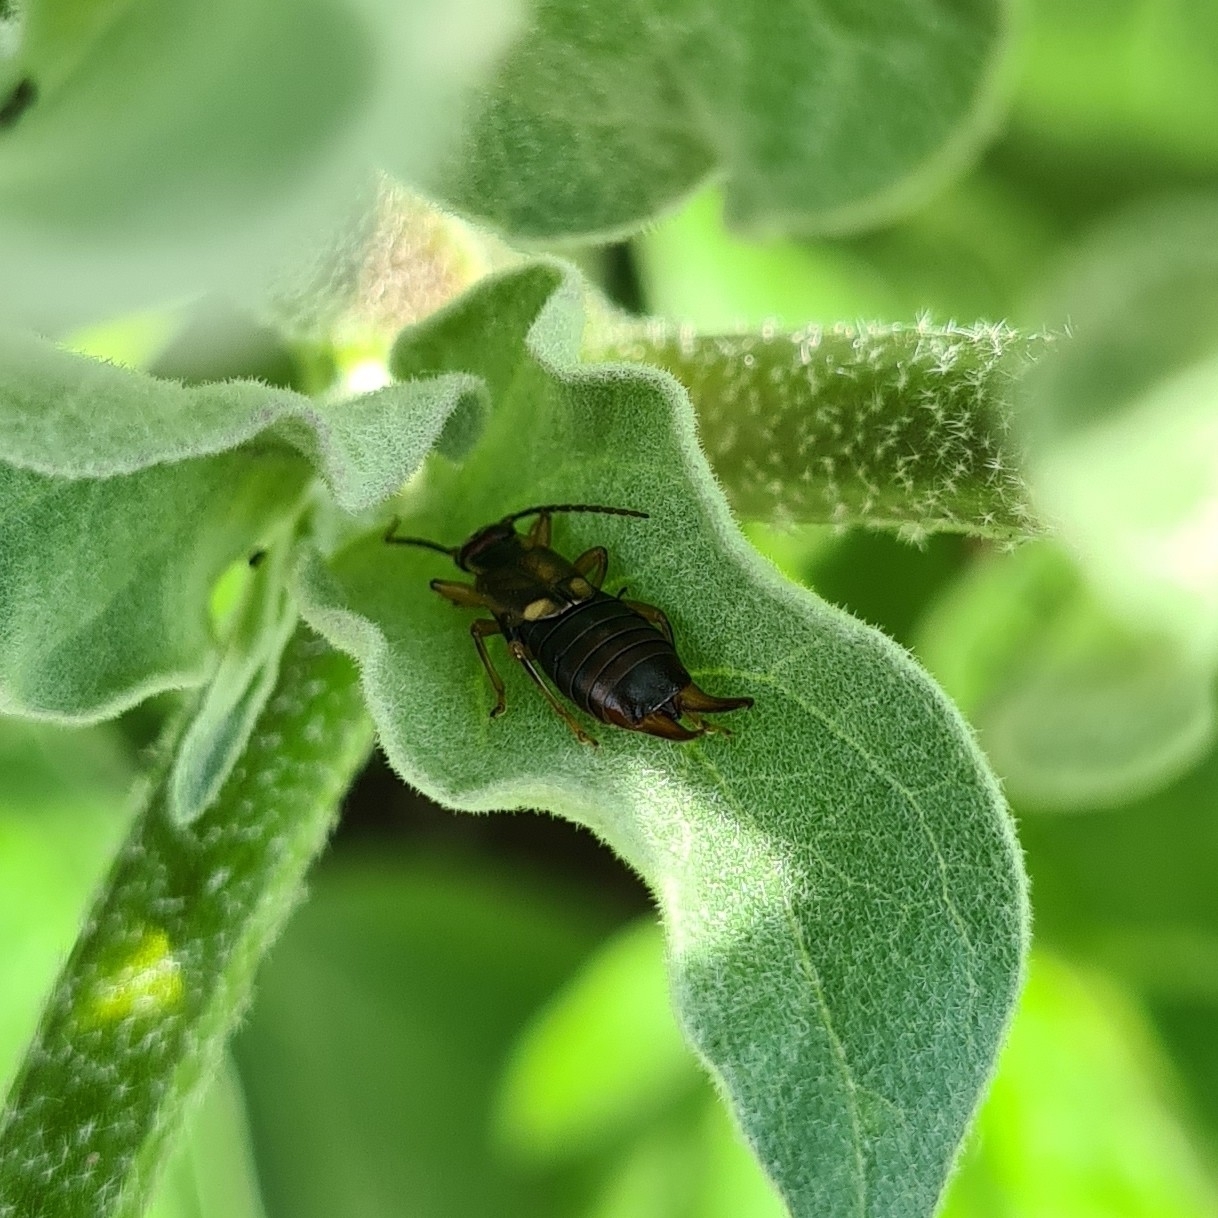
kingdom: Animalia
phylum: Arthropoda
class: Insecta
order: Dermaptera
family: Forficulidae
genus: Forficula
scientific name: Forficula
